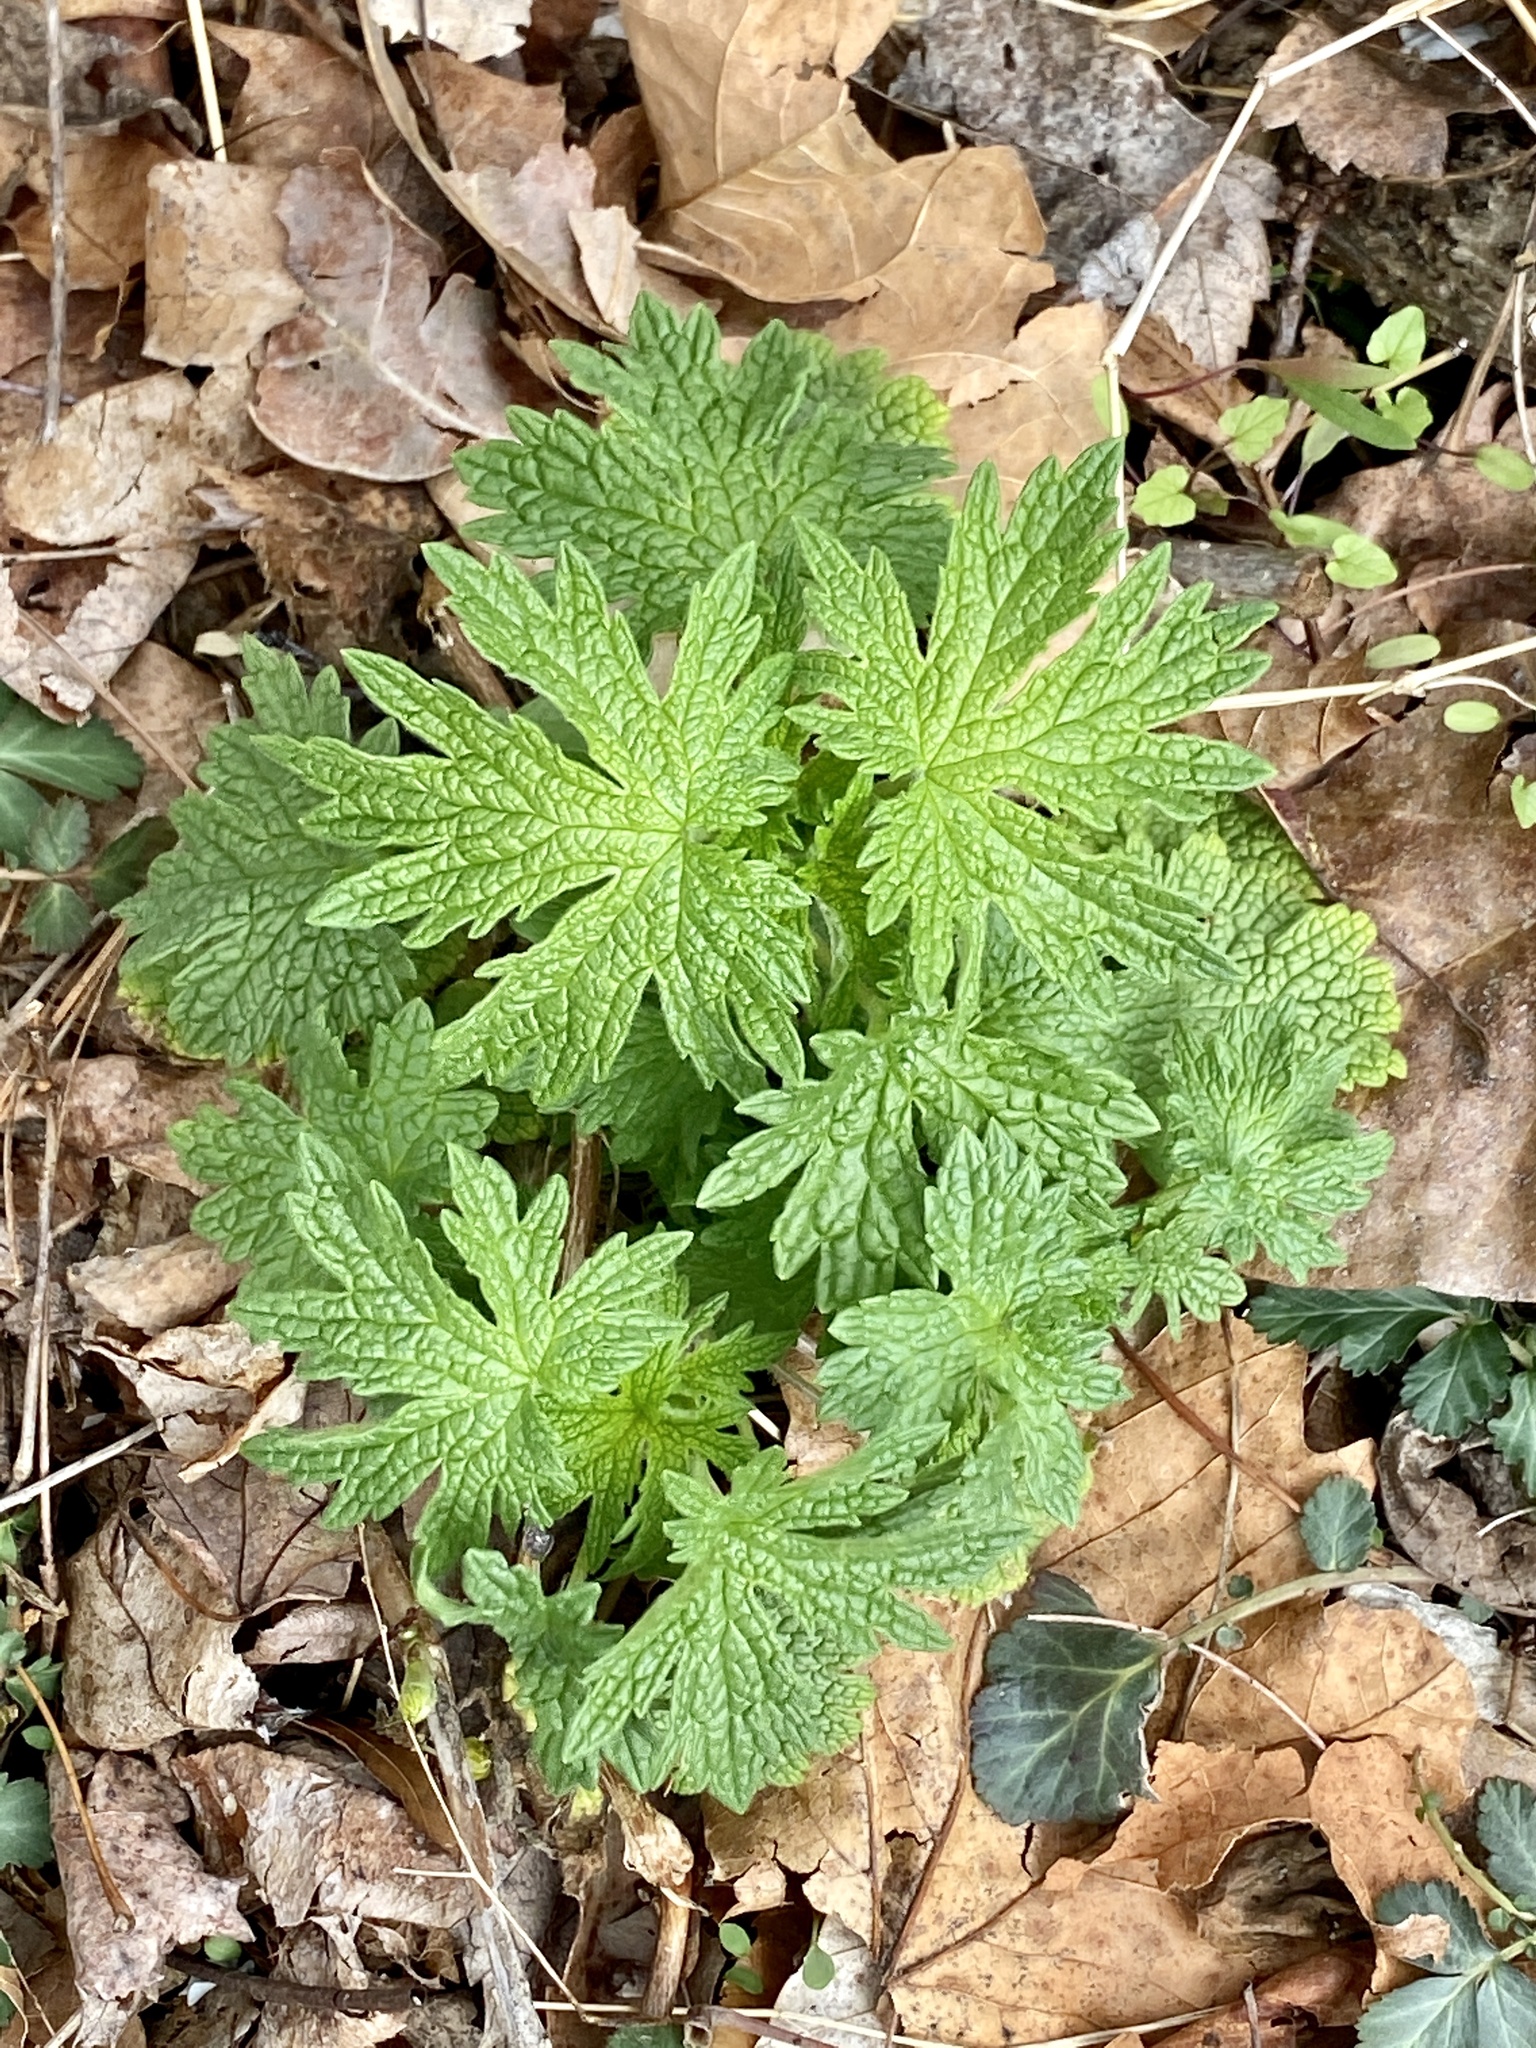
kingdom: Plantae
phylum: Tracheophyta
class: Magnoliopsida
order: Lamiales
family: Lamiaceae
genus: Leonurus
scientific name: Leonurus cardiaca
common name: Motherwort
